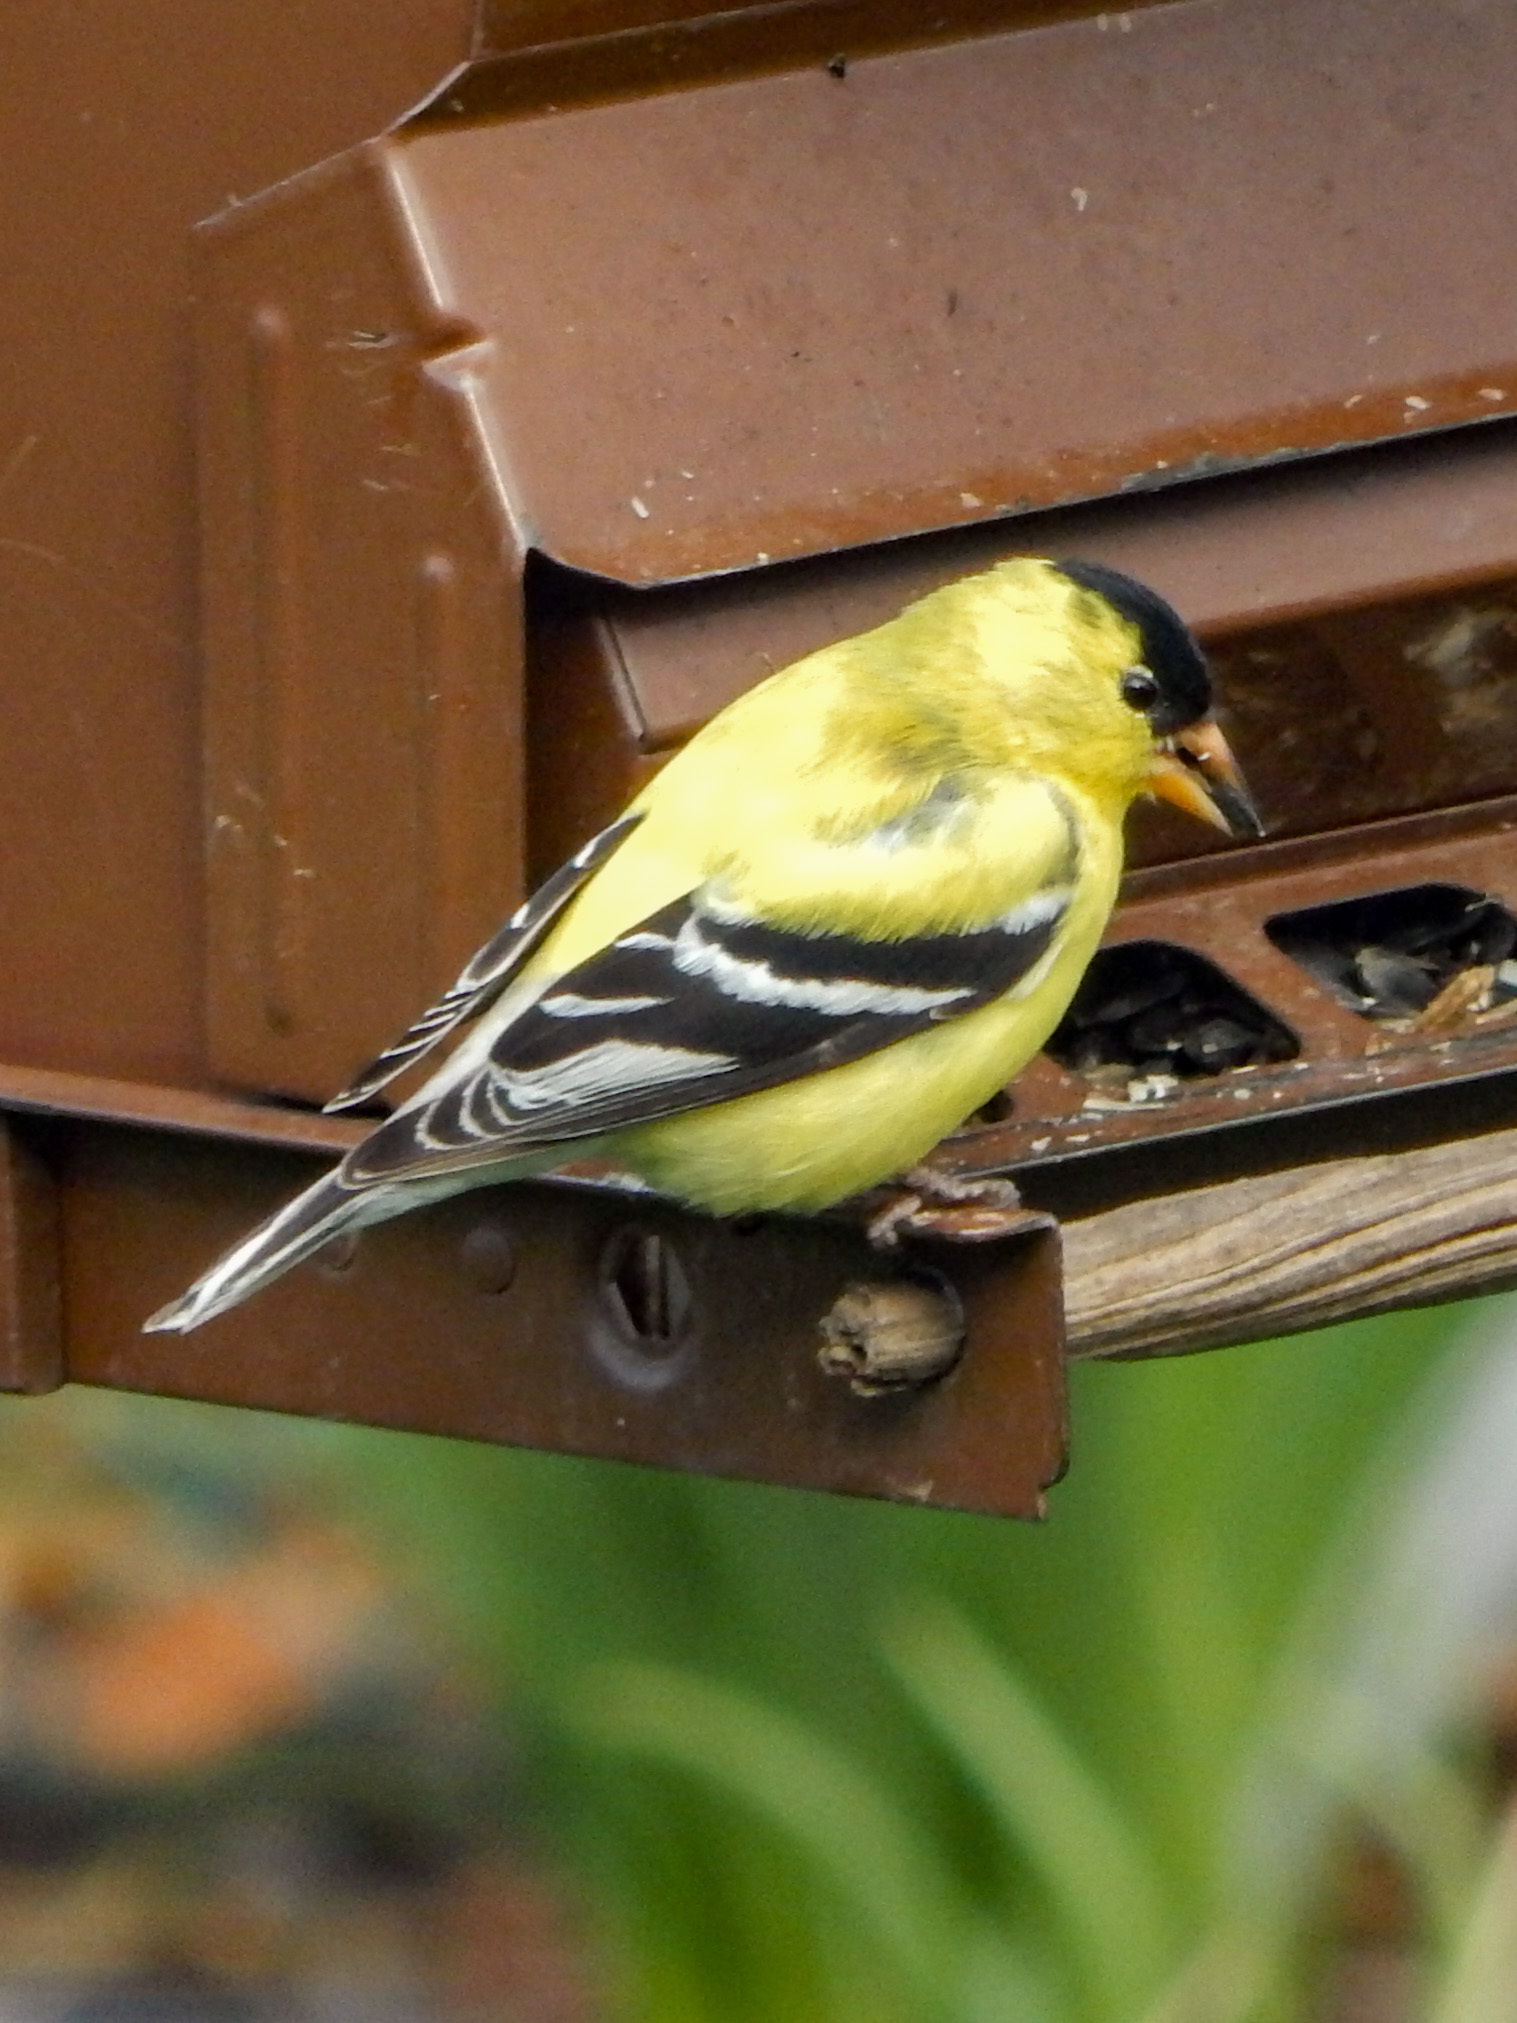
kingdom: Animalia
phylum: Chordata
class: Aves
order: Passeriformes
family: Fringillidae
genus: Spinus
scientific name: Spinus tristis
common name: American goldfinch
